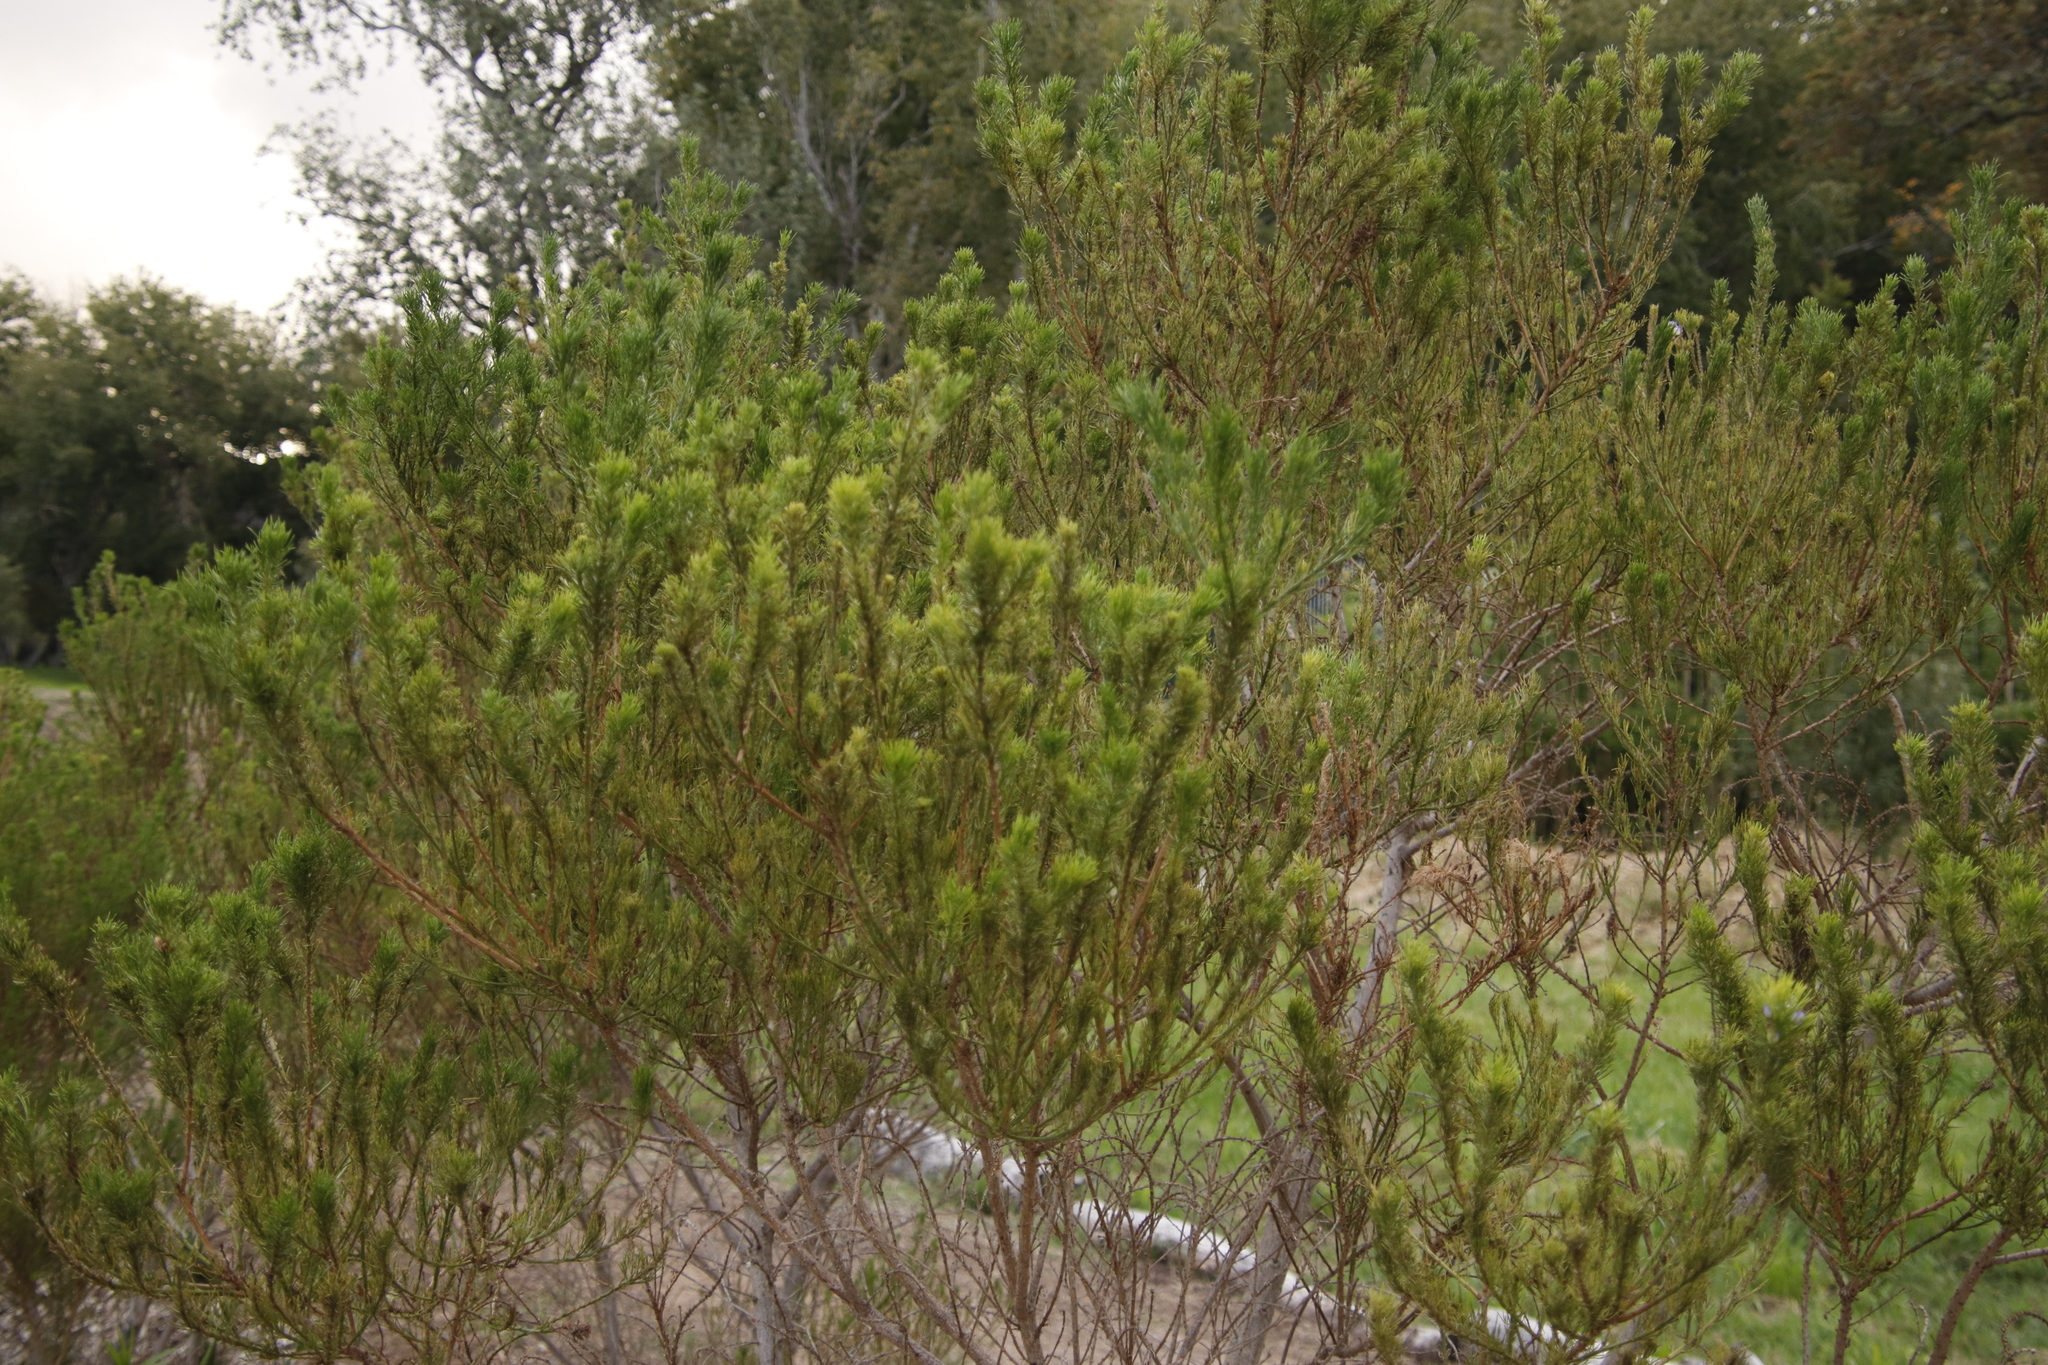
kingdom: Plantae
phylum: Tracheophyta
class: Magnoliopsida
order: Fabales
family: Fabaceae
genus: Psoralea
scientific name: Psoralea pinnata
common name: African scurfpea
